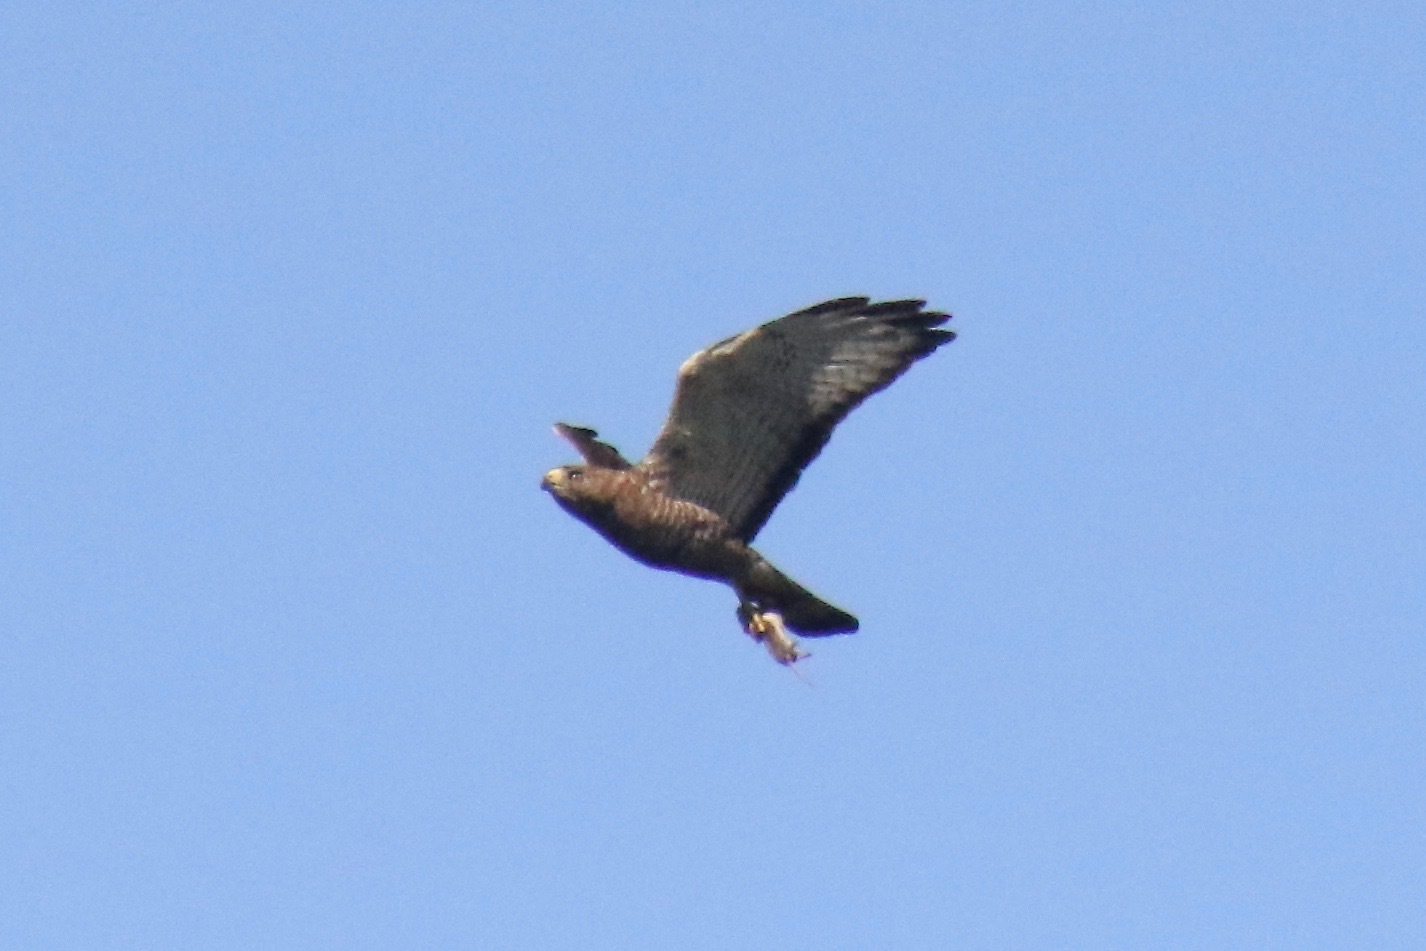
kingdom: Animalia
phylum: Chordata
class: Aves
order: Accipitriformes
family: Accipitridae
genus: Buteo
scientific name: Buteo platypterus
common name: Broad-winged hawk
